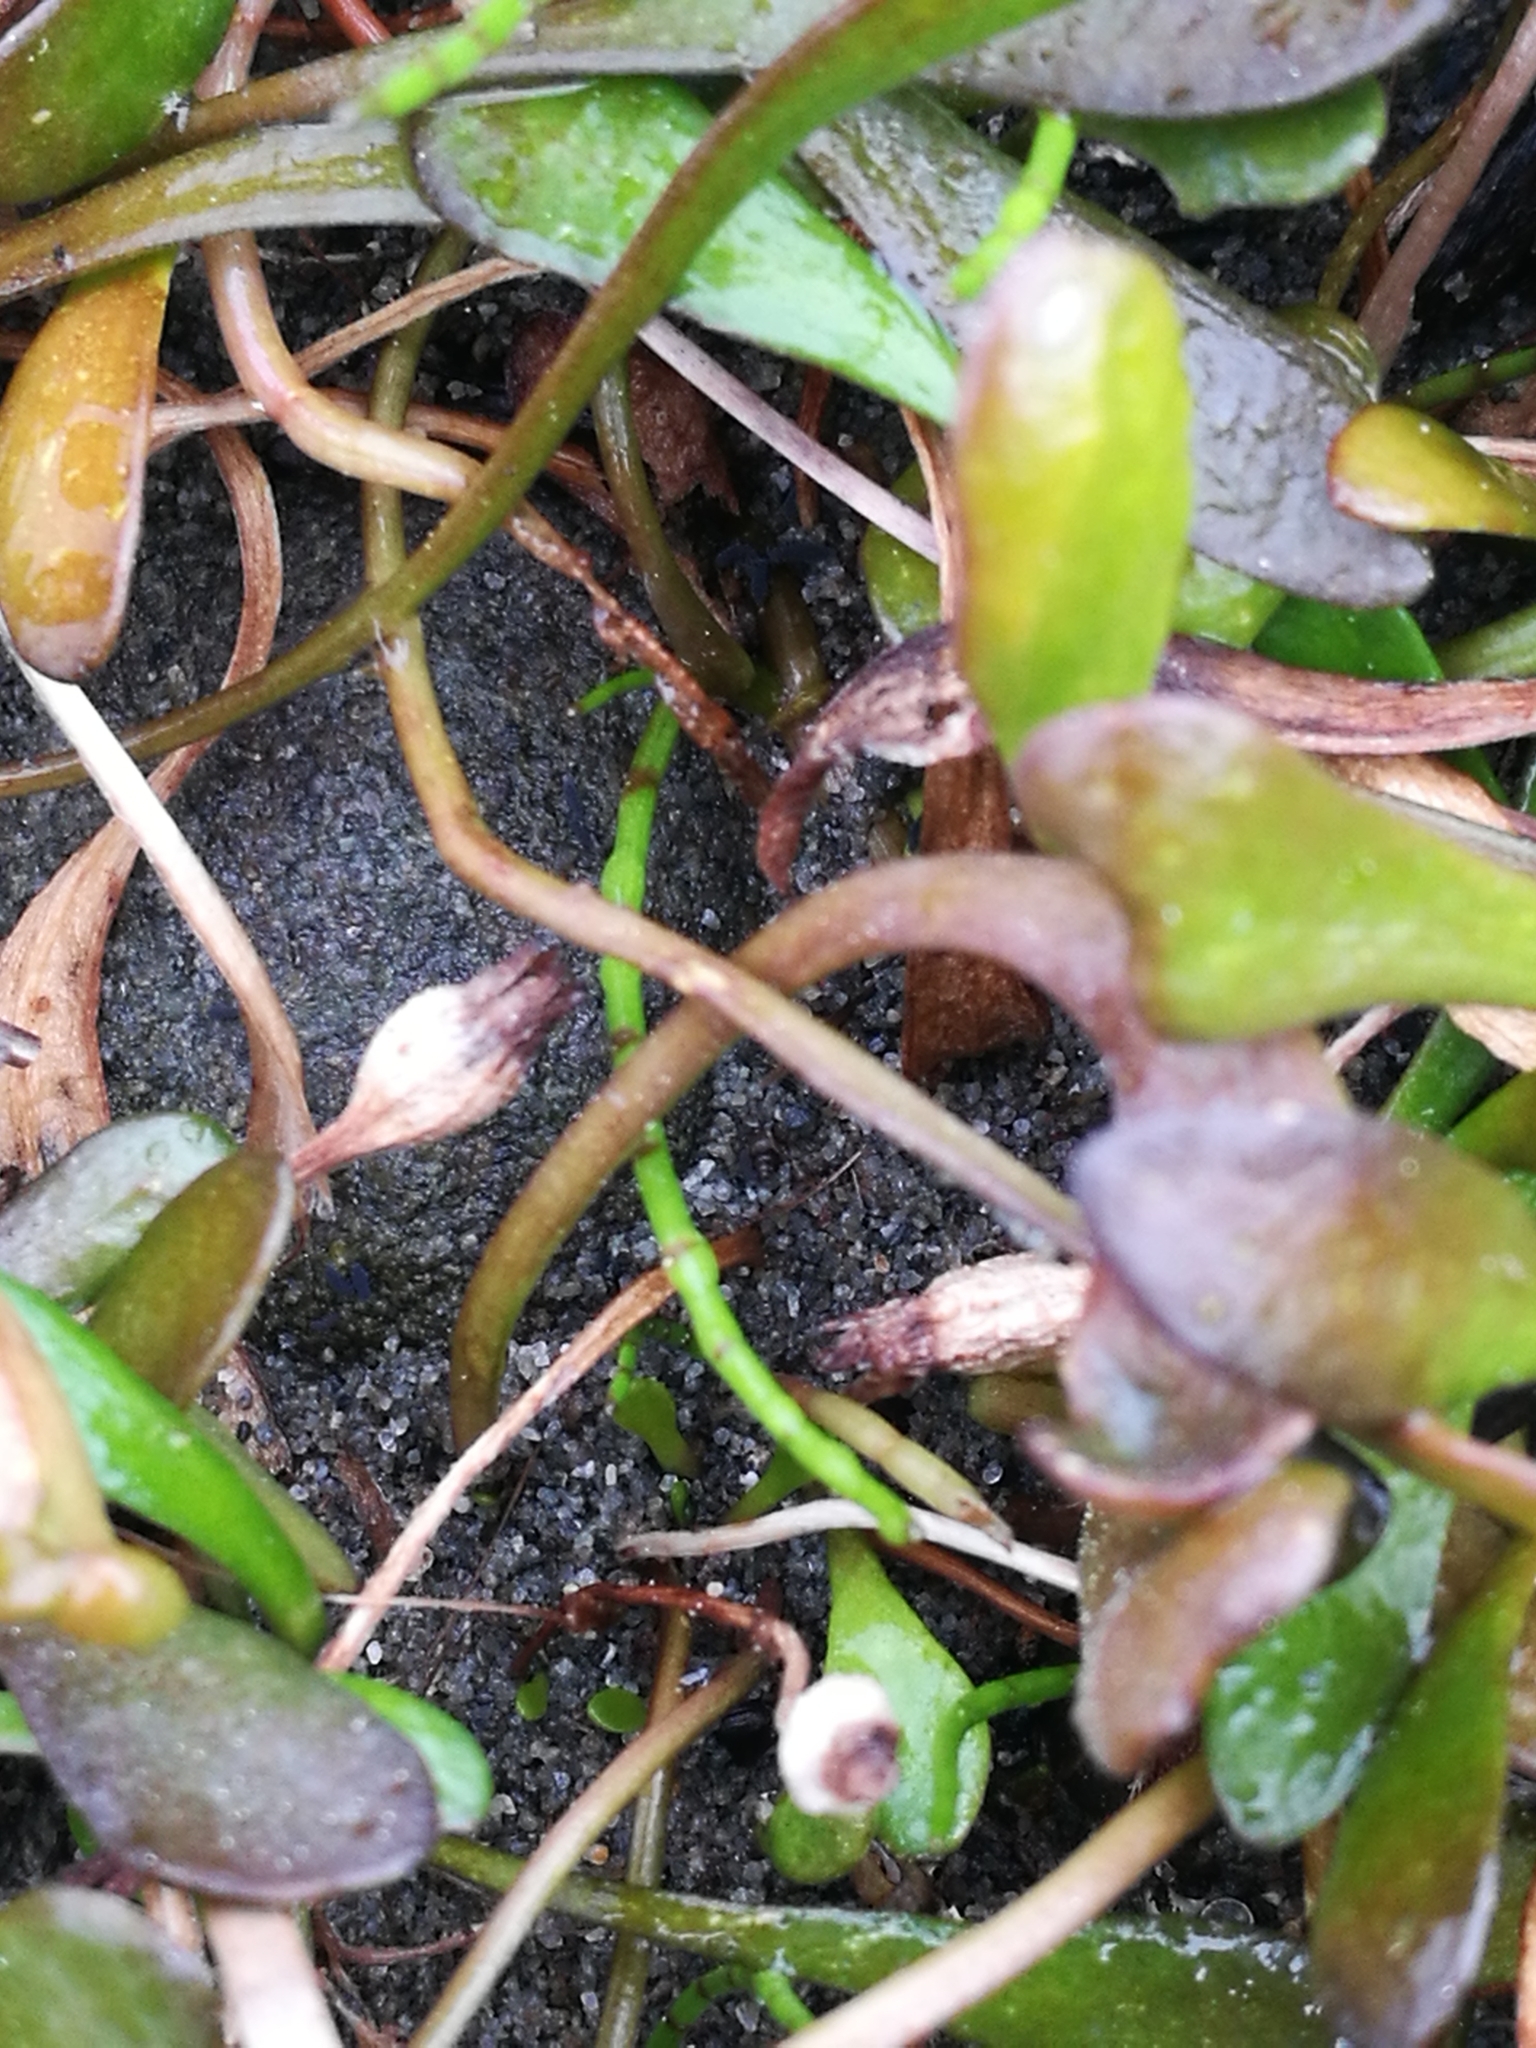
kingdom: Plantae
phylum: Tracheophyta
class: Magnoliopsida
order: Asterales
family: Goodeniaceae
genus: Goodenia
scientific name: Goodenia radicans
